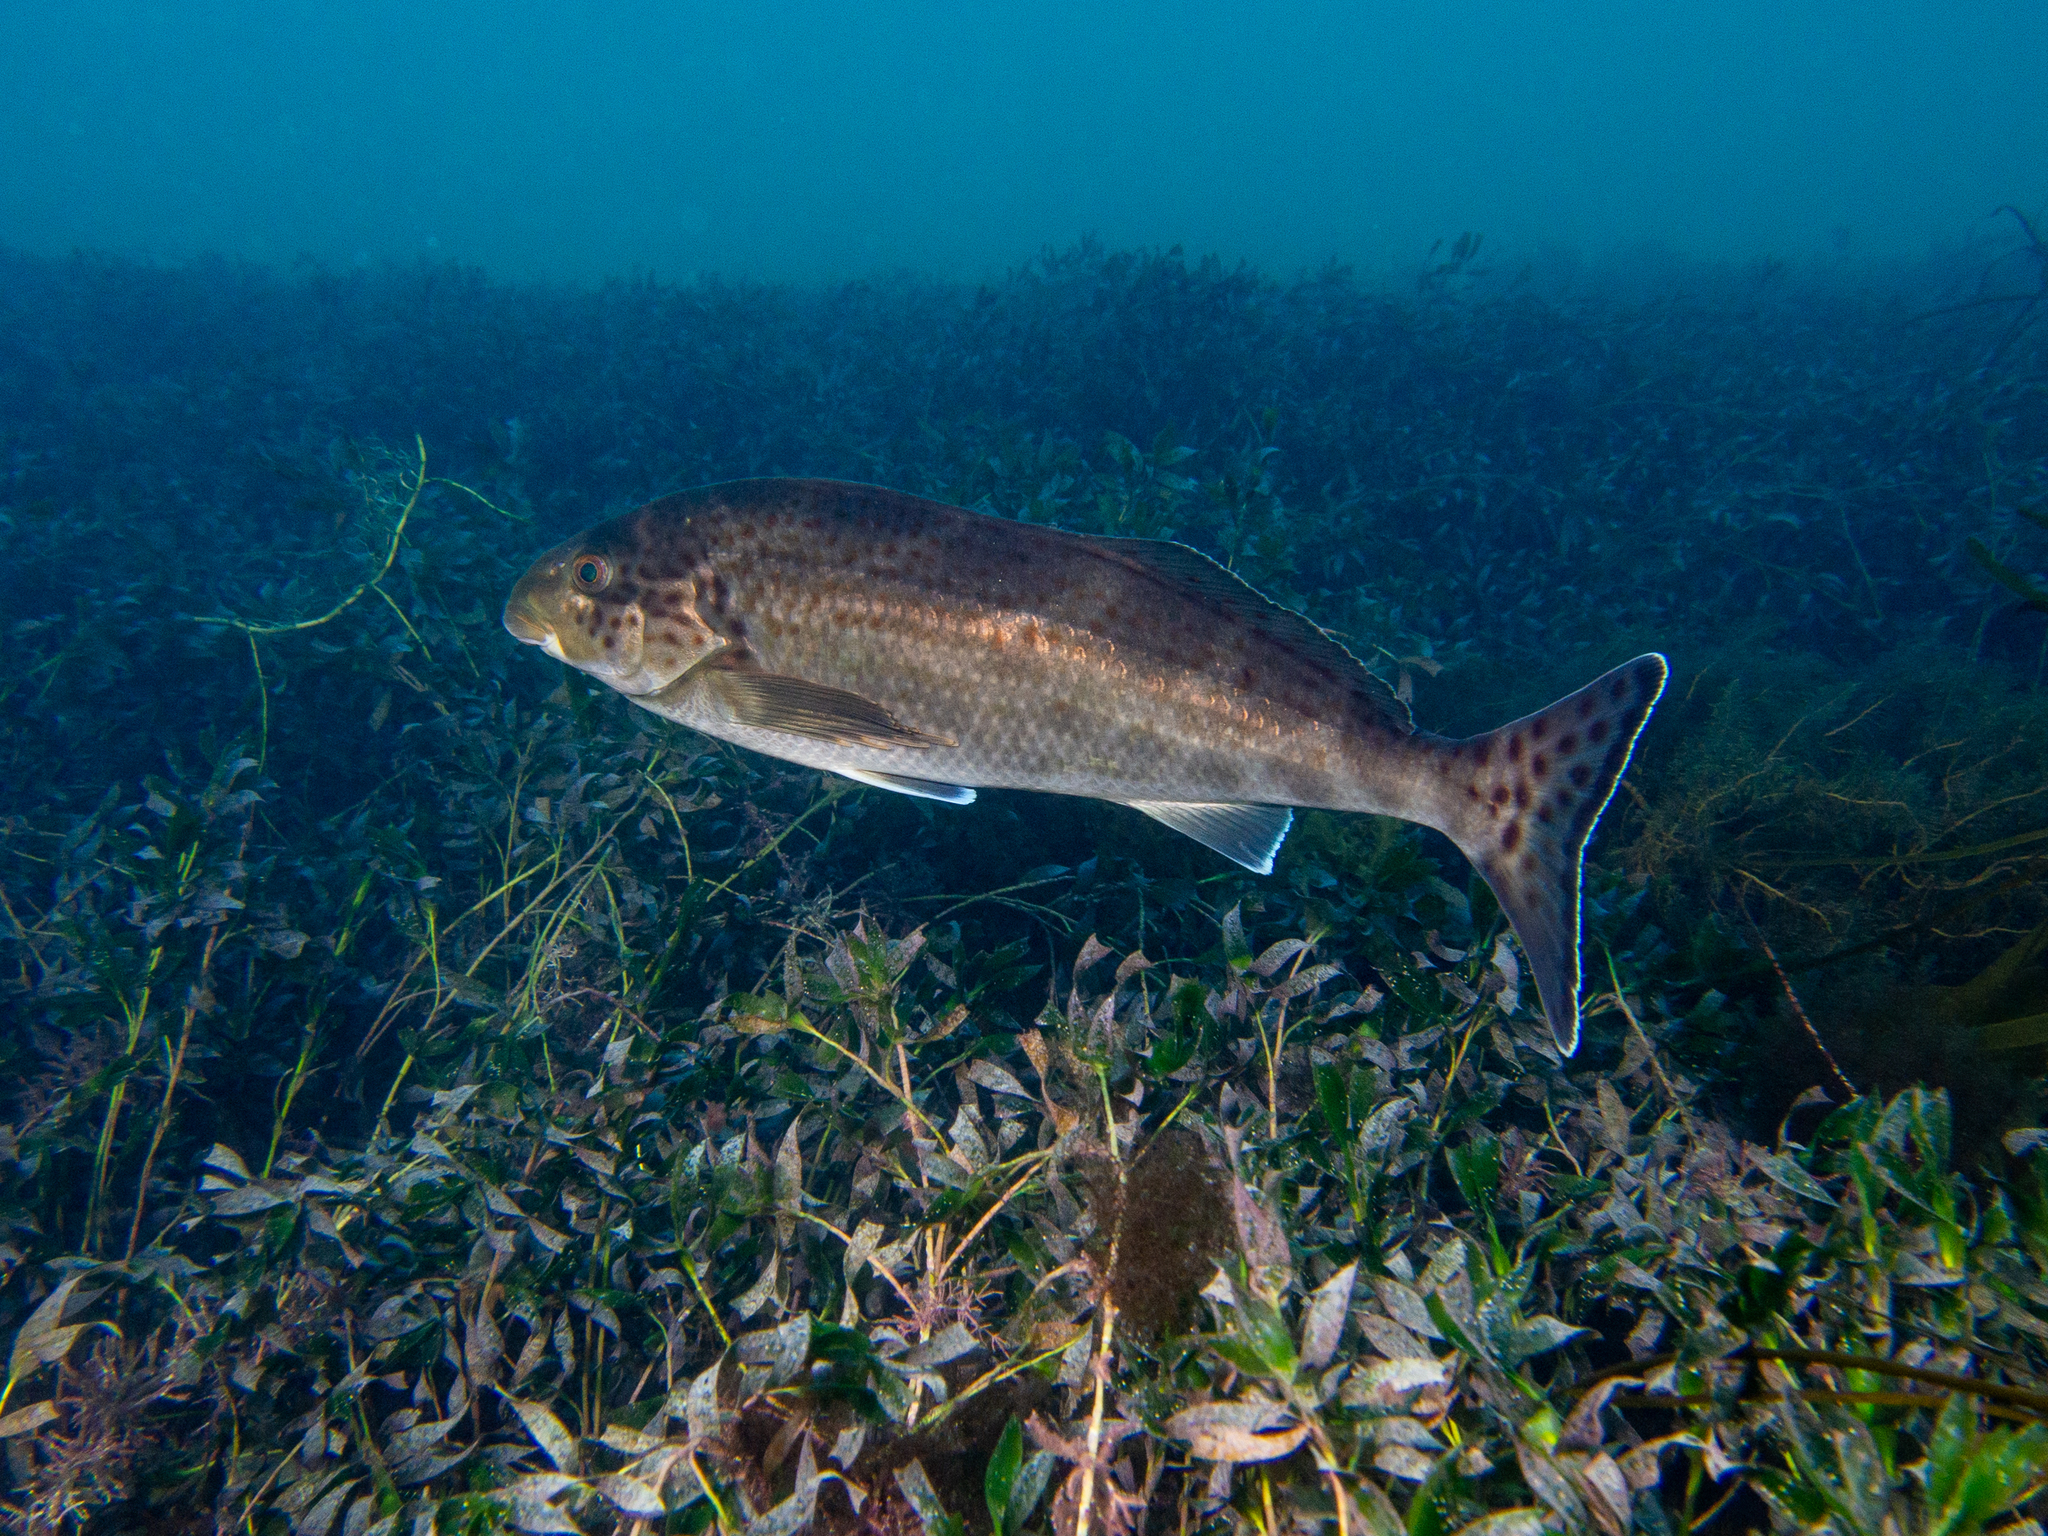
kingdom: Animalia
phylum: Chordata
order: Perciformes
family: Cheilodactylidae
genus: Dactylophora
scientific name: Dactylophora nigricans
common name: Dusky morwong
